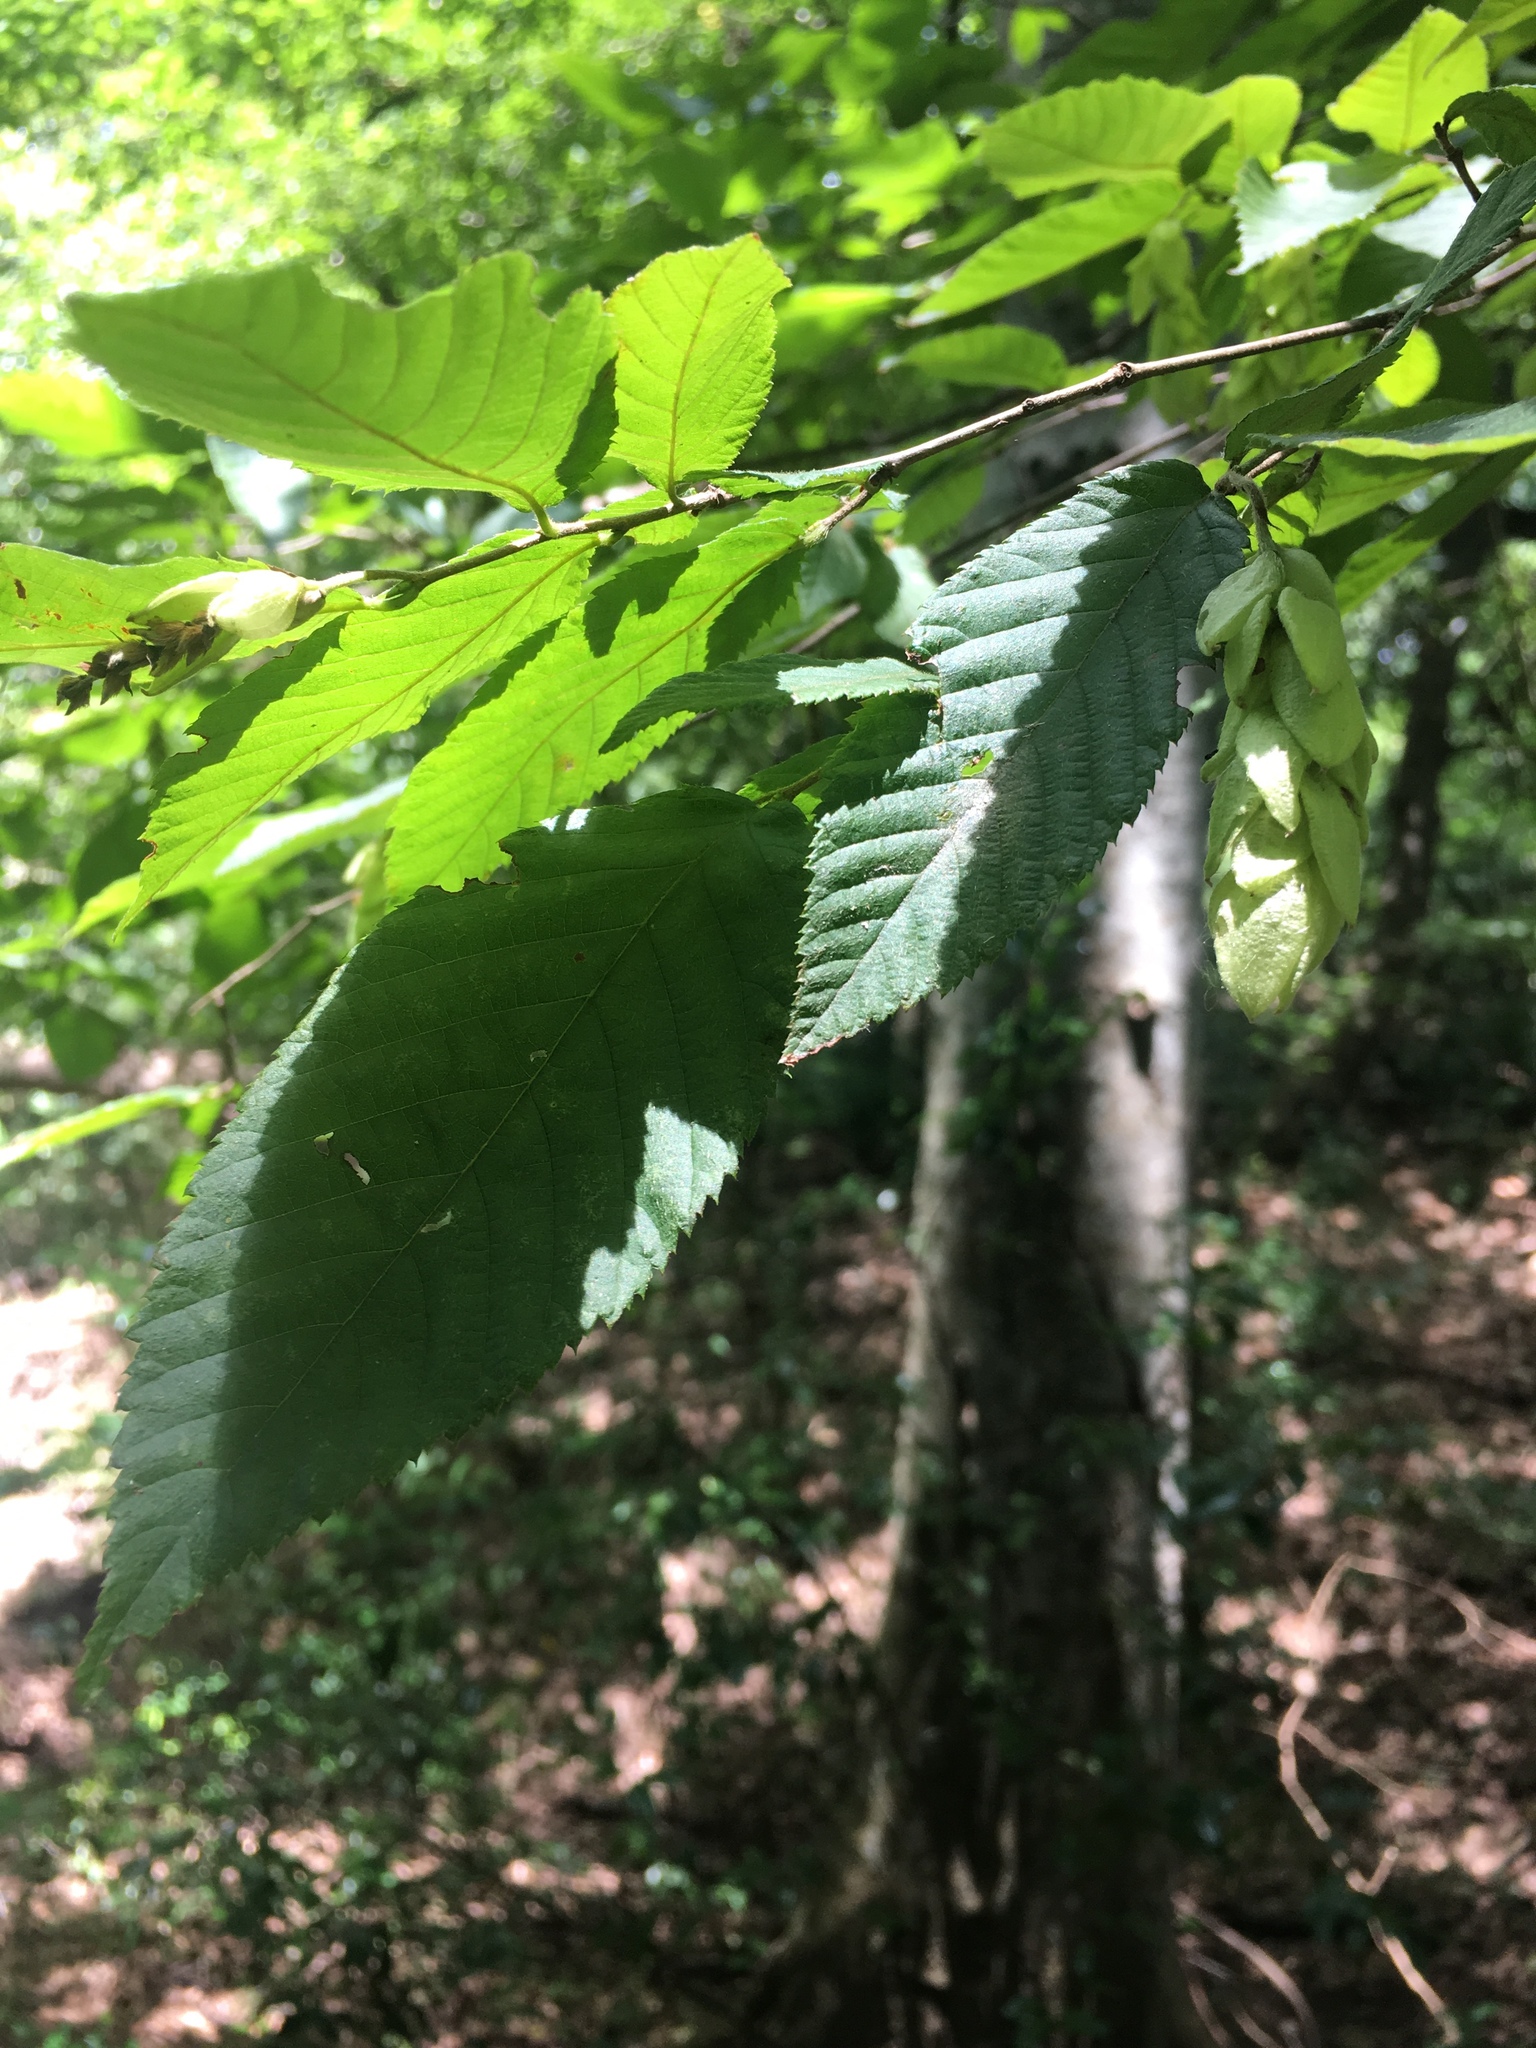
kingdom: Plantae
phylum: Tracheophyta
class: Magnoliopsida
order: Fagales
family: Betulaceae
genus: Ostrya
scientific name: Ostrya virginiana
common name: Ironwood
